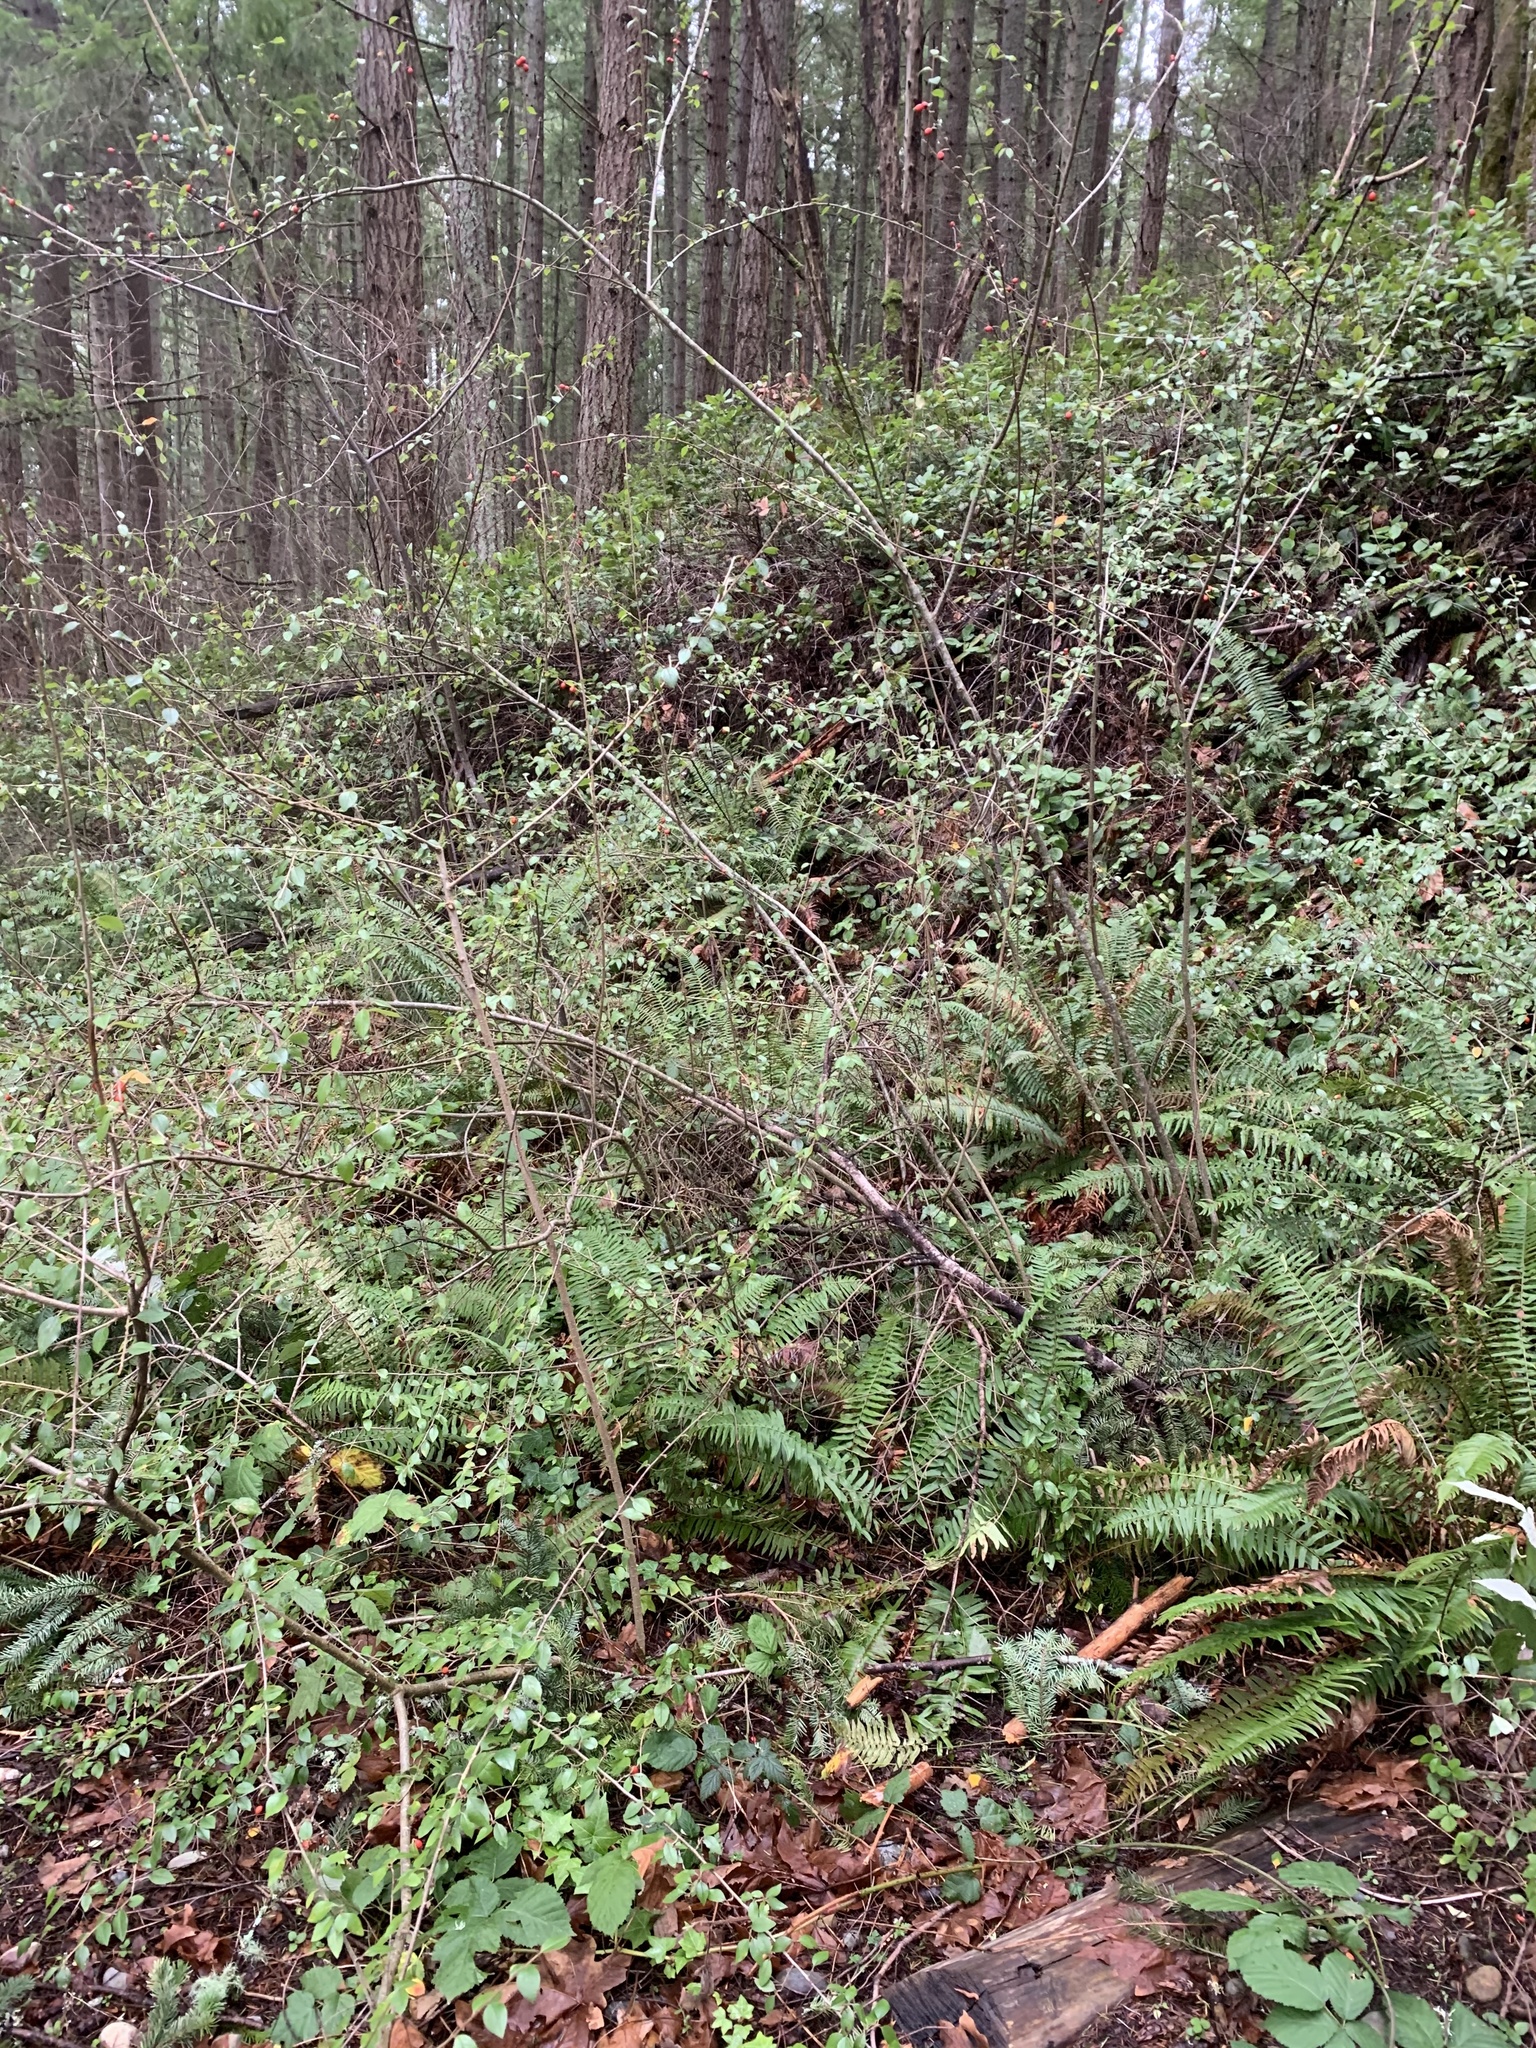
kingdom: Plantae
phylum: Tracheophyta
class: Magnoliopsida
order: Rosales
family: Rosaceae
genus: Cotoneaster
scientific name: Cotoneaster simonsii
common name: Himalayan cotoneaster
